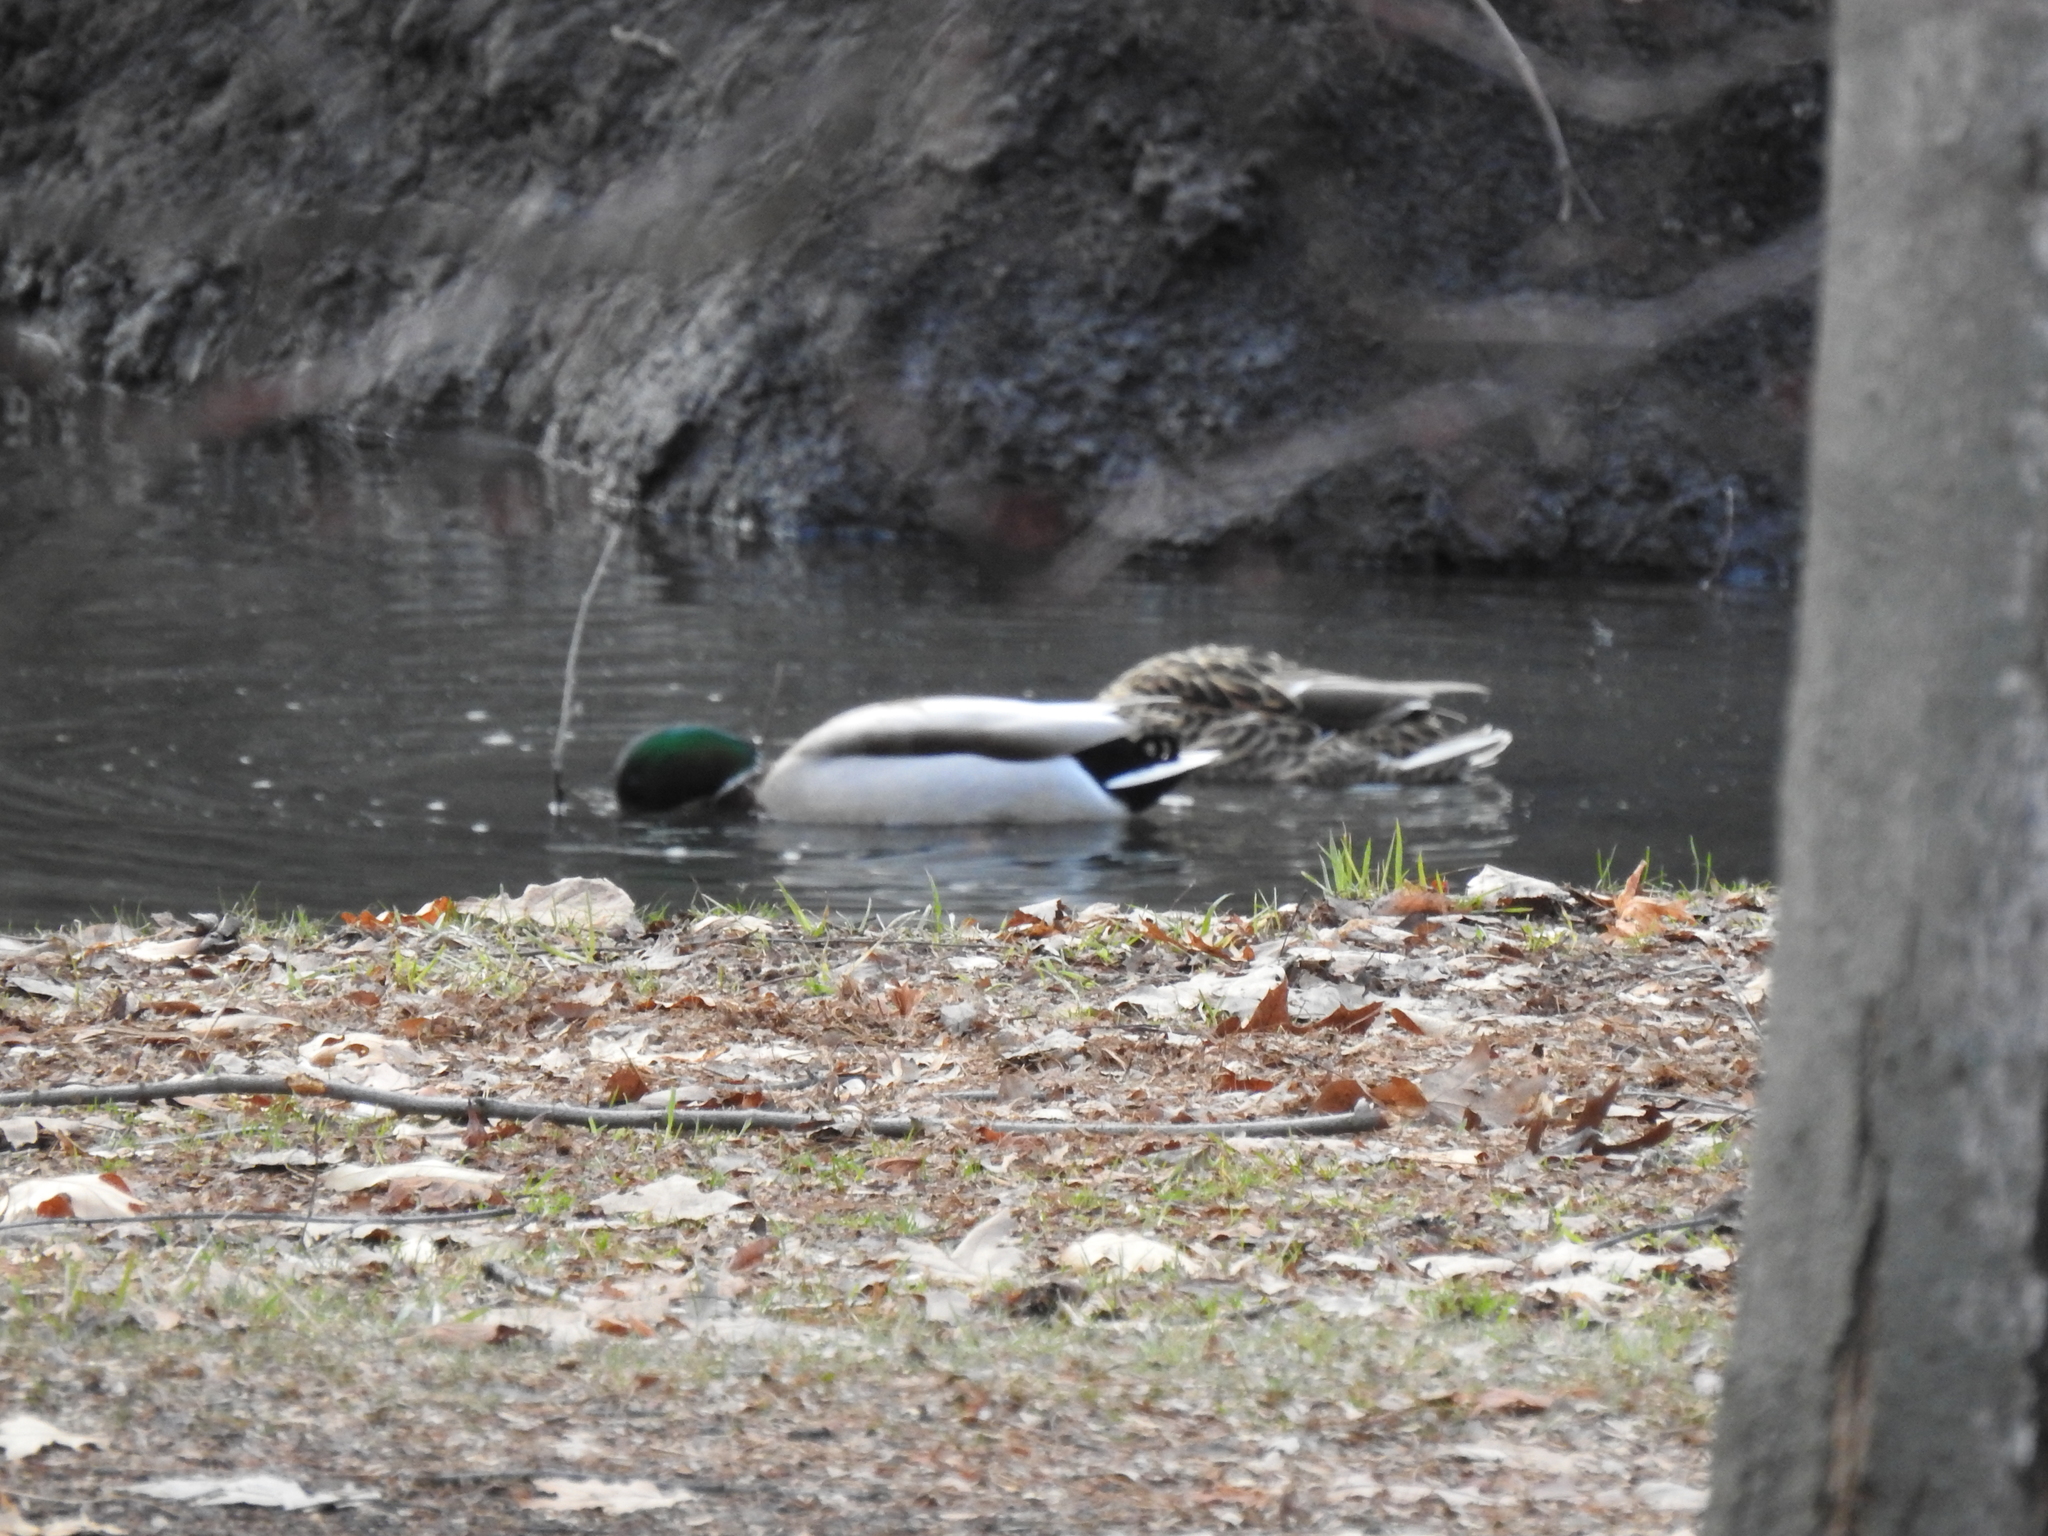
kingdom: Animalia
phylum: Chordata
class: Aves
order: Anseriformes
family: Anatidae
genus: Anas
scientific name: Anas platyrhynchos
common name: Mallard
